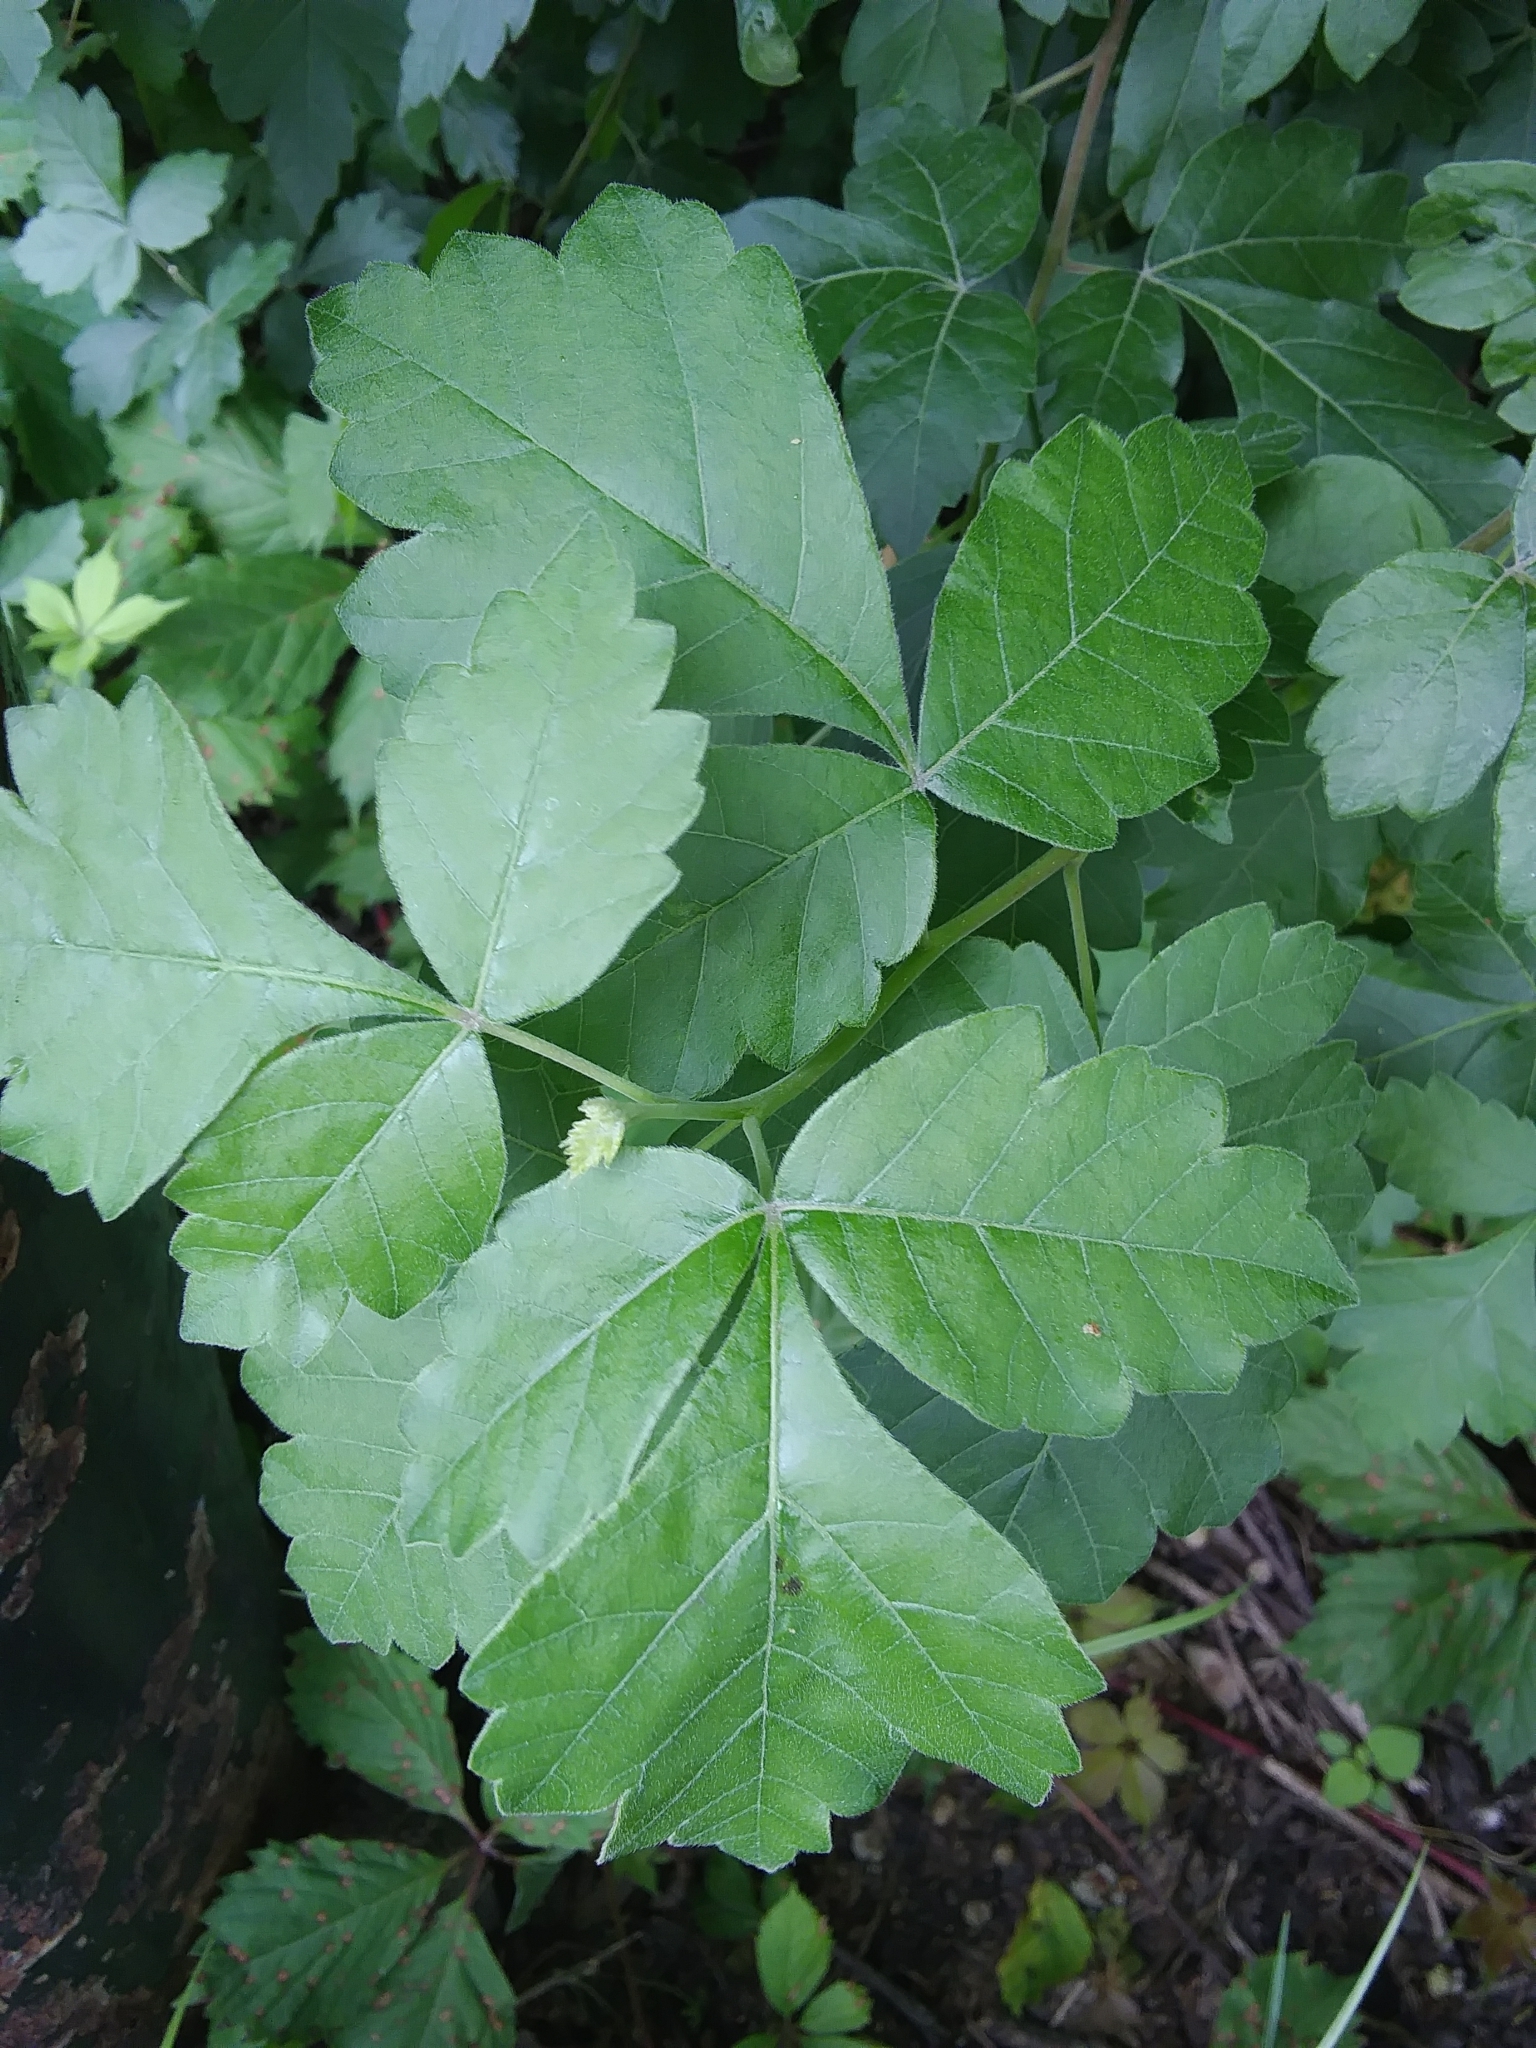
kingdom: Plantae
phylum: Tracheophyta
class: Magnoliopsida
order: Sapindales
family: Anacardiaceae
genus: Rhus
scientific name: Rhus aromatica
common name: Aromatic sumac
